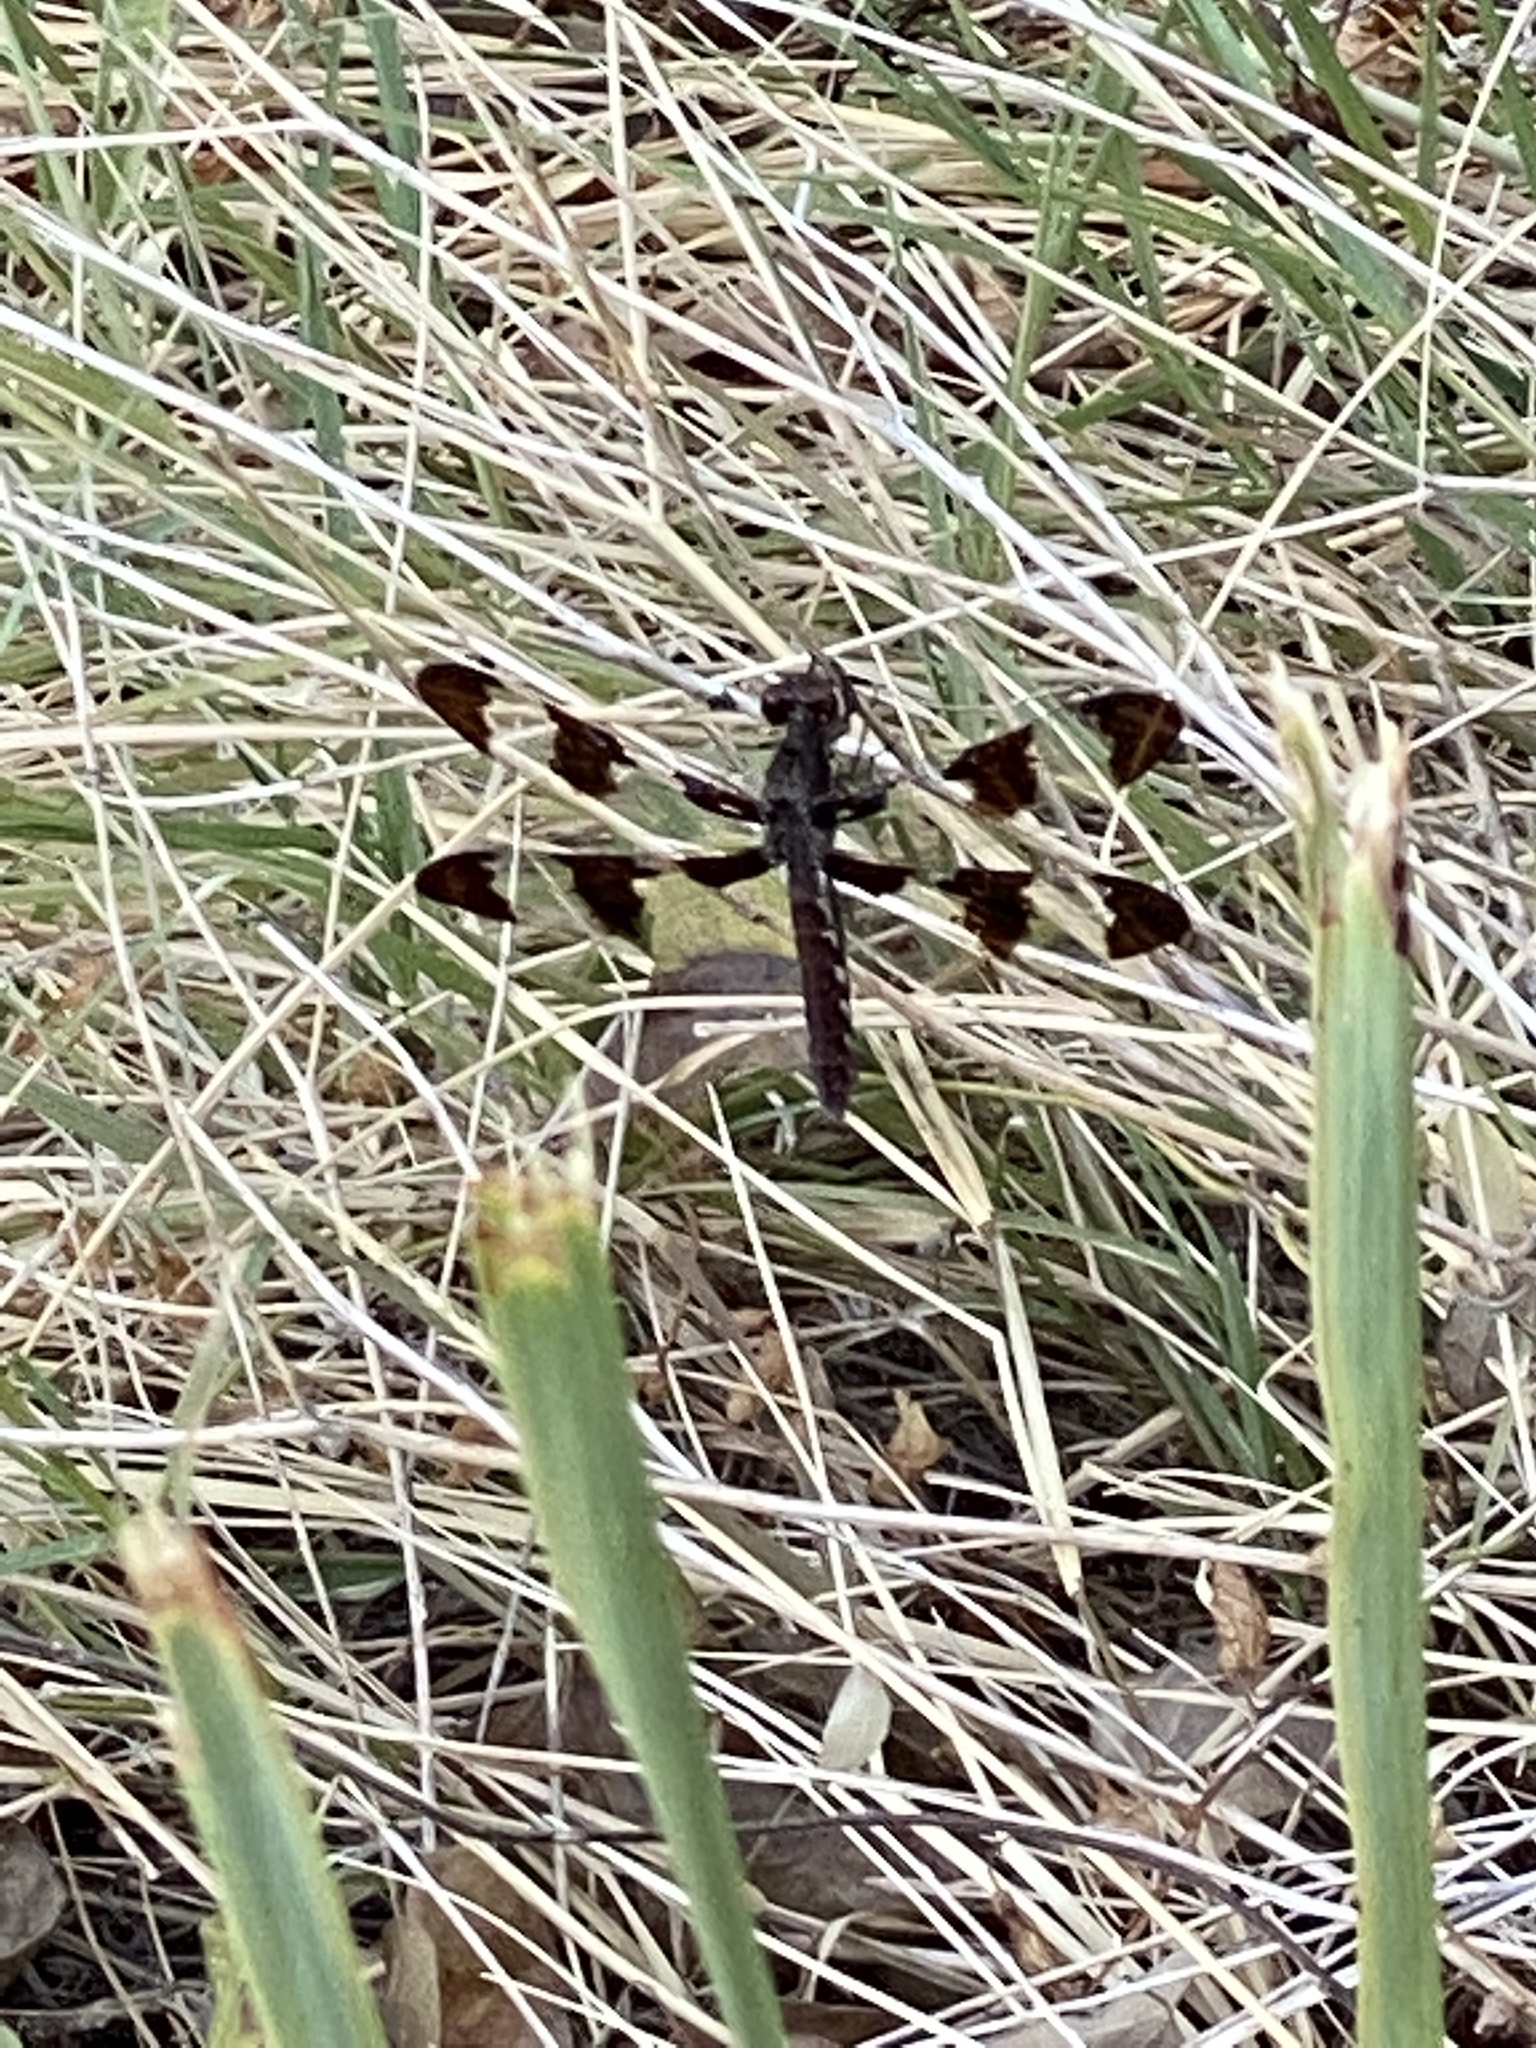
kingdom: Animalia
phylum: Arthropoda
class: Insecta
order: Odonata
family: Libellulidae
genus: Plathemis
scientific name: Plathemis lydia
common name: Common whitetail
